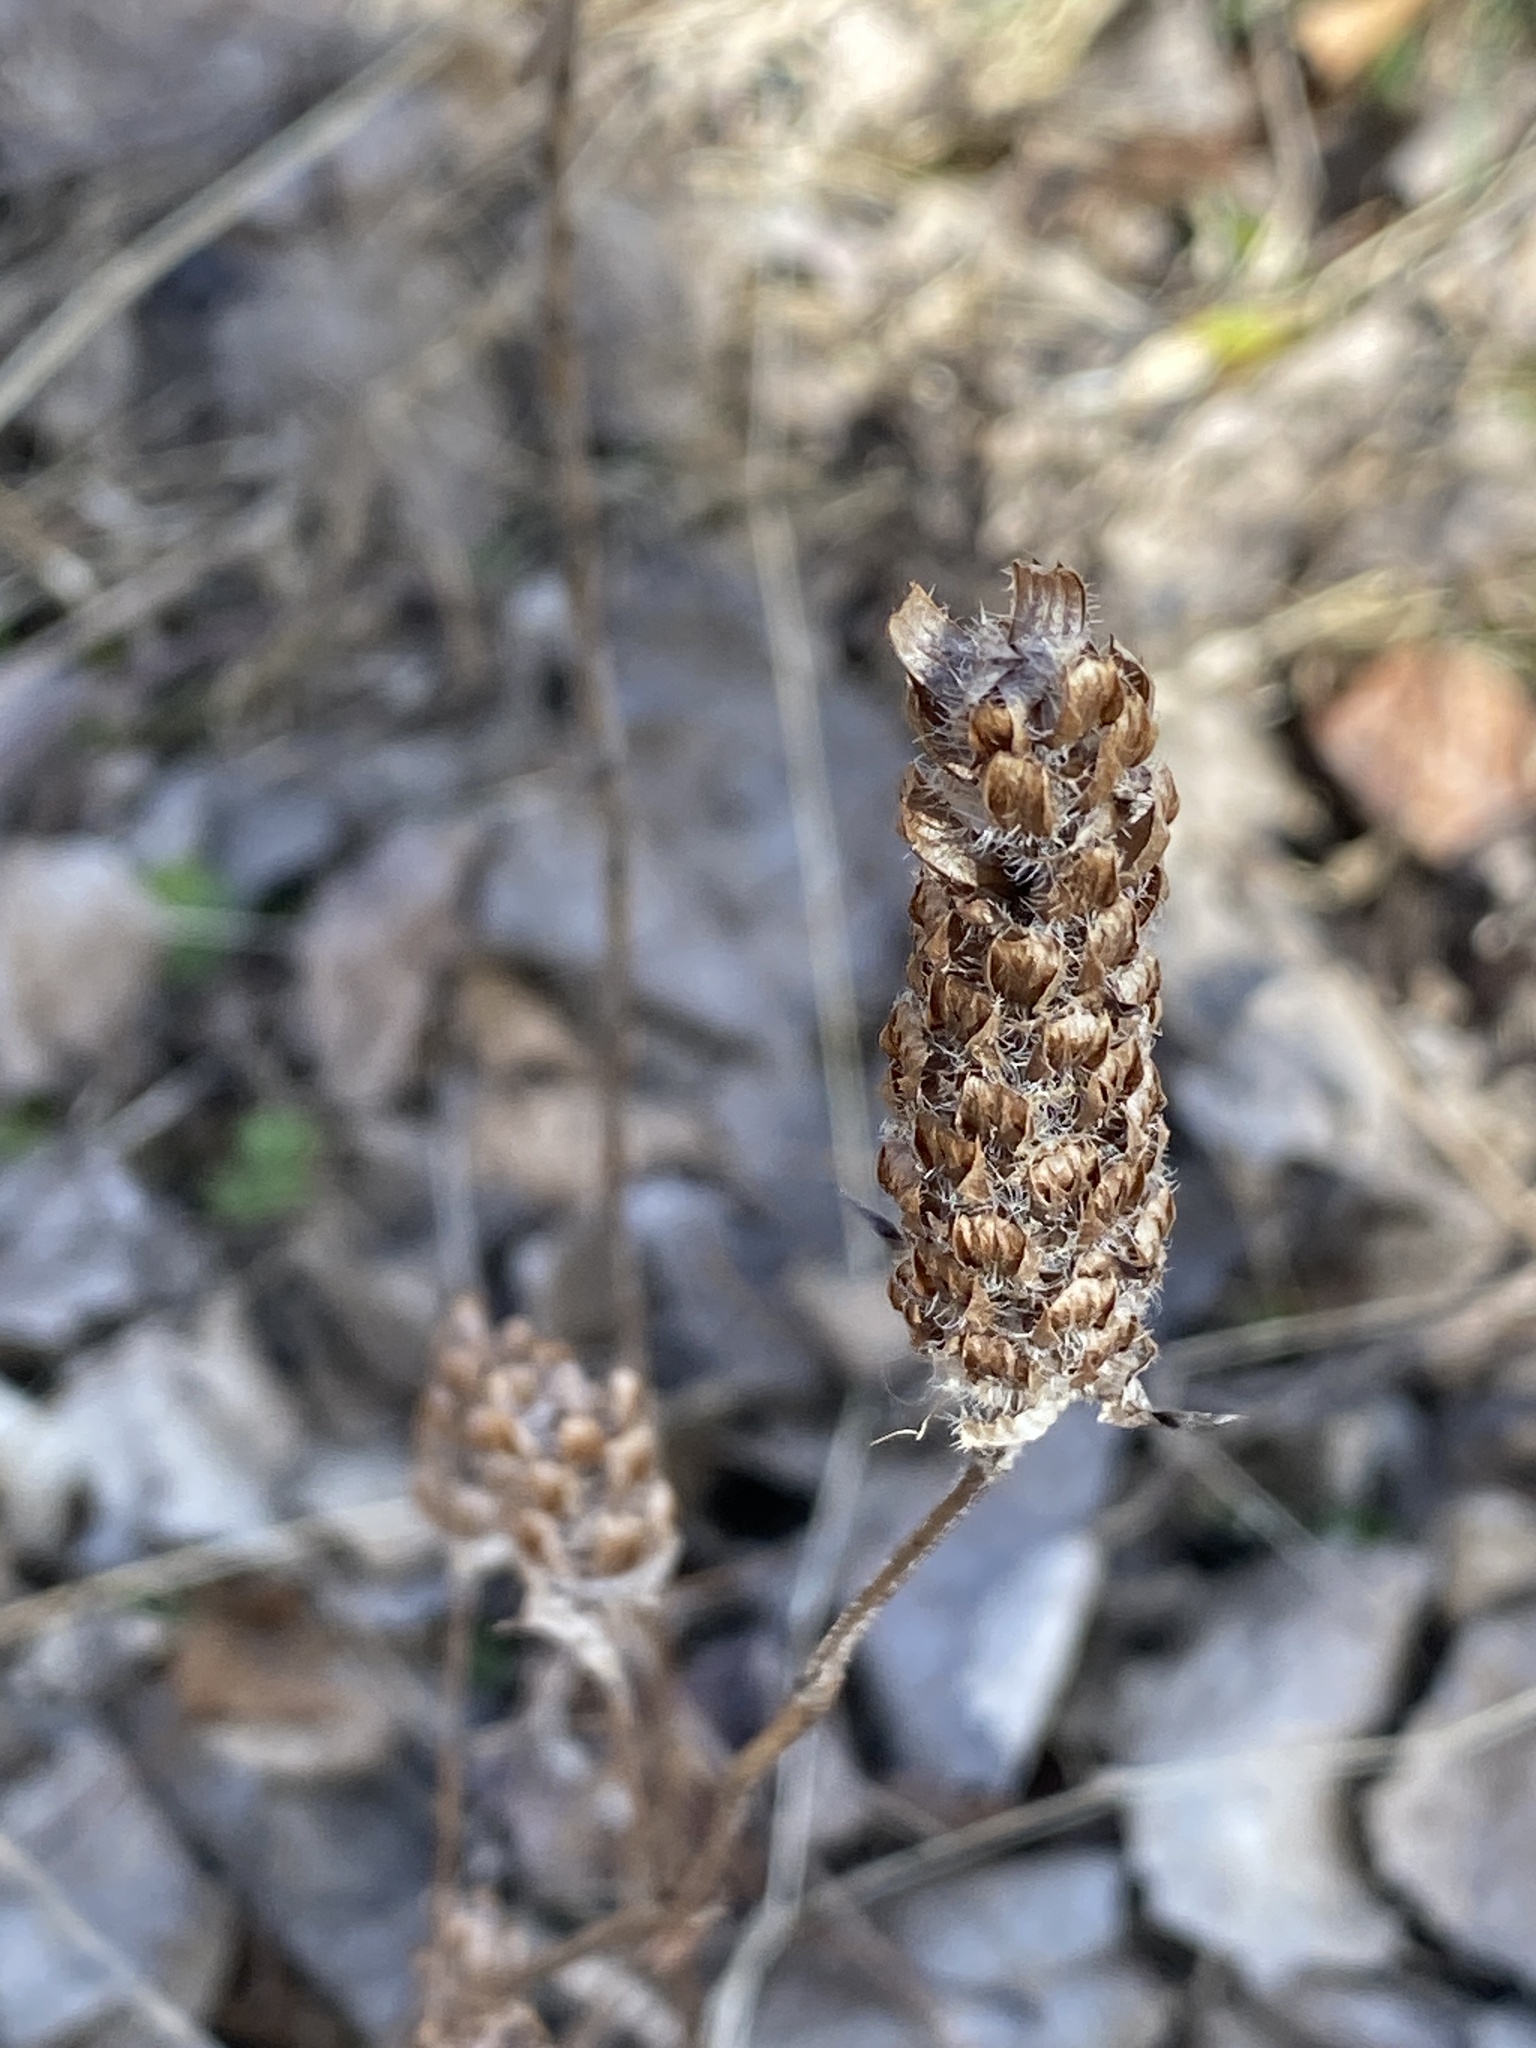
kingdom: Plantae
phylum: Tracheophyta
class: Magnoliopsida
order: Lamiales
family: Lamiaceae
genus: Prunella
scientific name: Prunella vulgaris
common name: Heal-all
